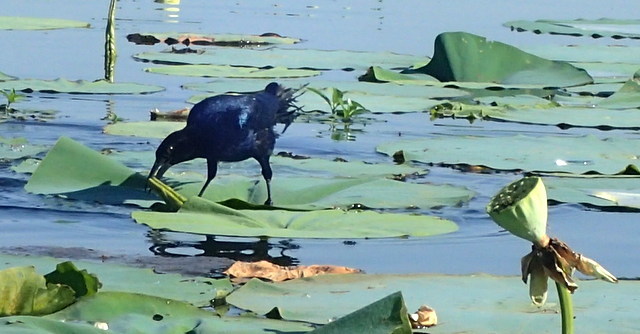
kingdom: Animalia
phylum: Chordata
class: Aves
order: Passeriformes
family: Icteridae
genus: Quiscalus
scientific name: Quiscalus major
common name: Boat-tailed grackle
